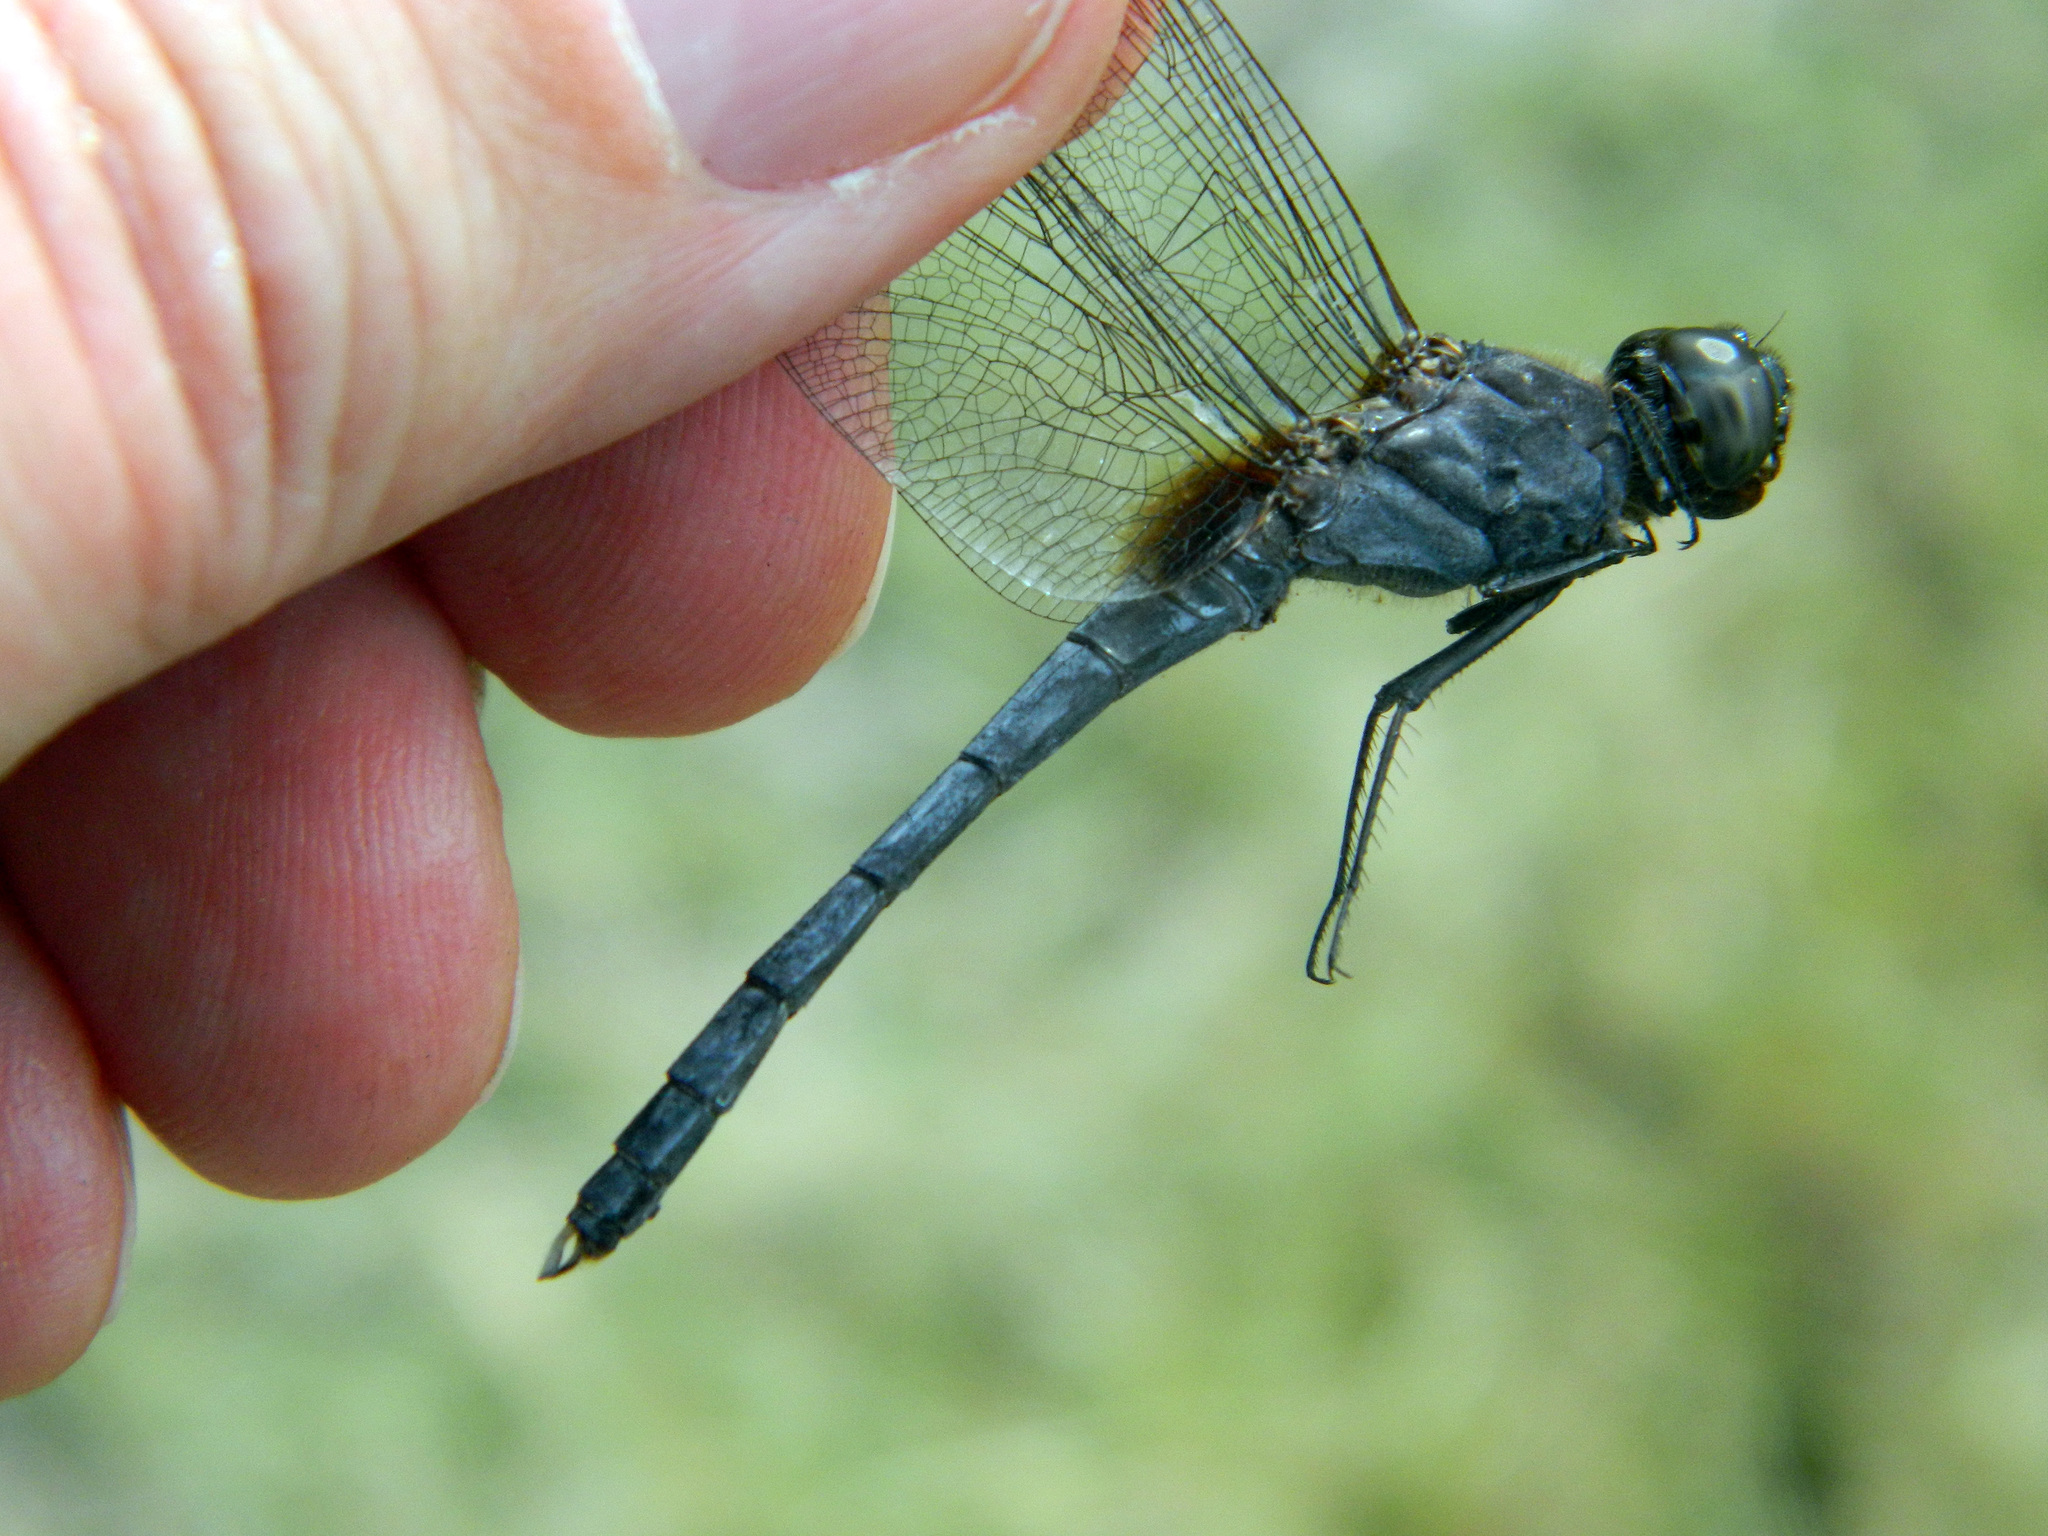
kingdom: Animalia
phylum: Arthropoda
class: Insecta
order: Odonata
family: Libellulidae
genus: Erythrodiplax
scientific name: Erythrodiplax umbrata
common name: Band-winged dragonlet
